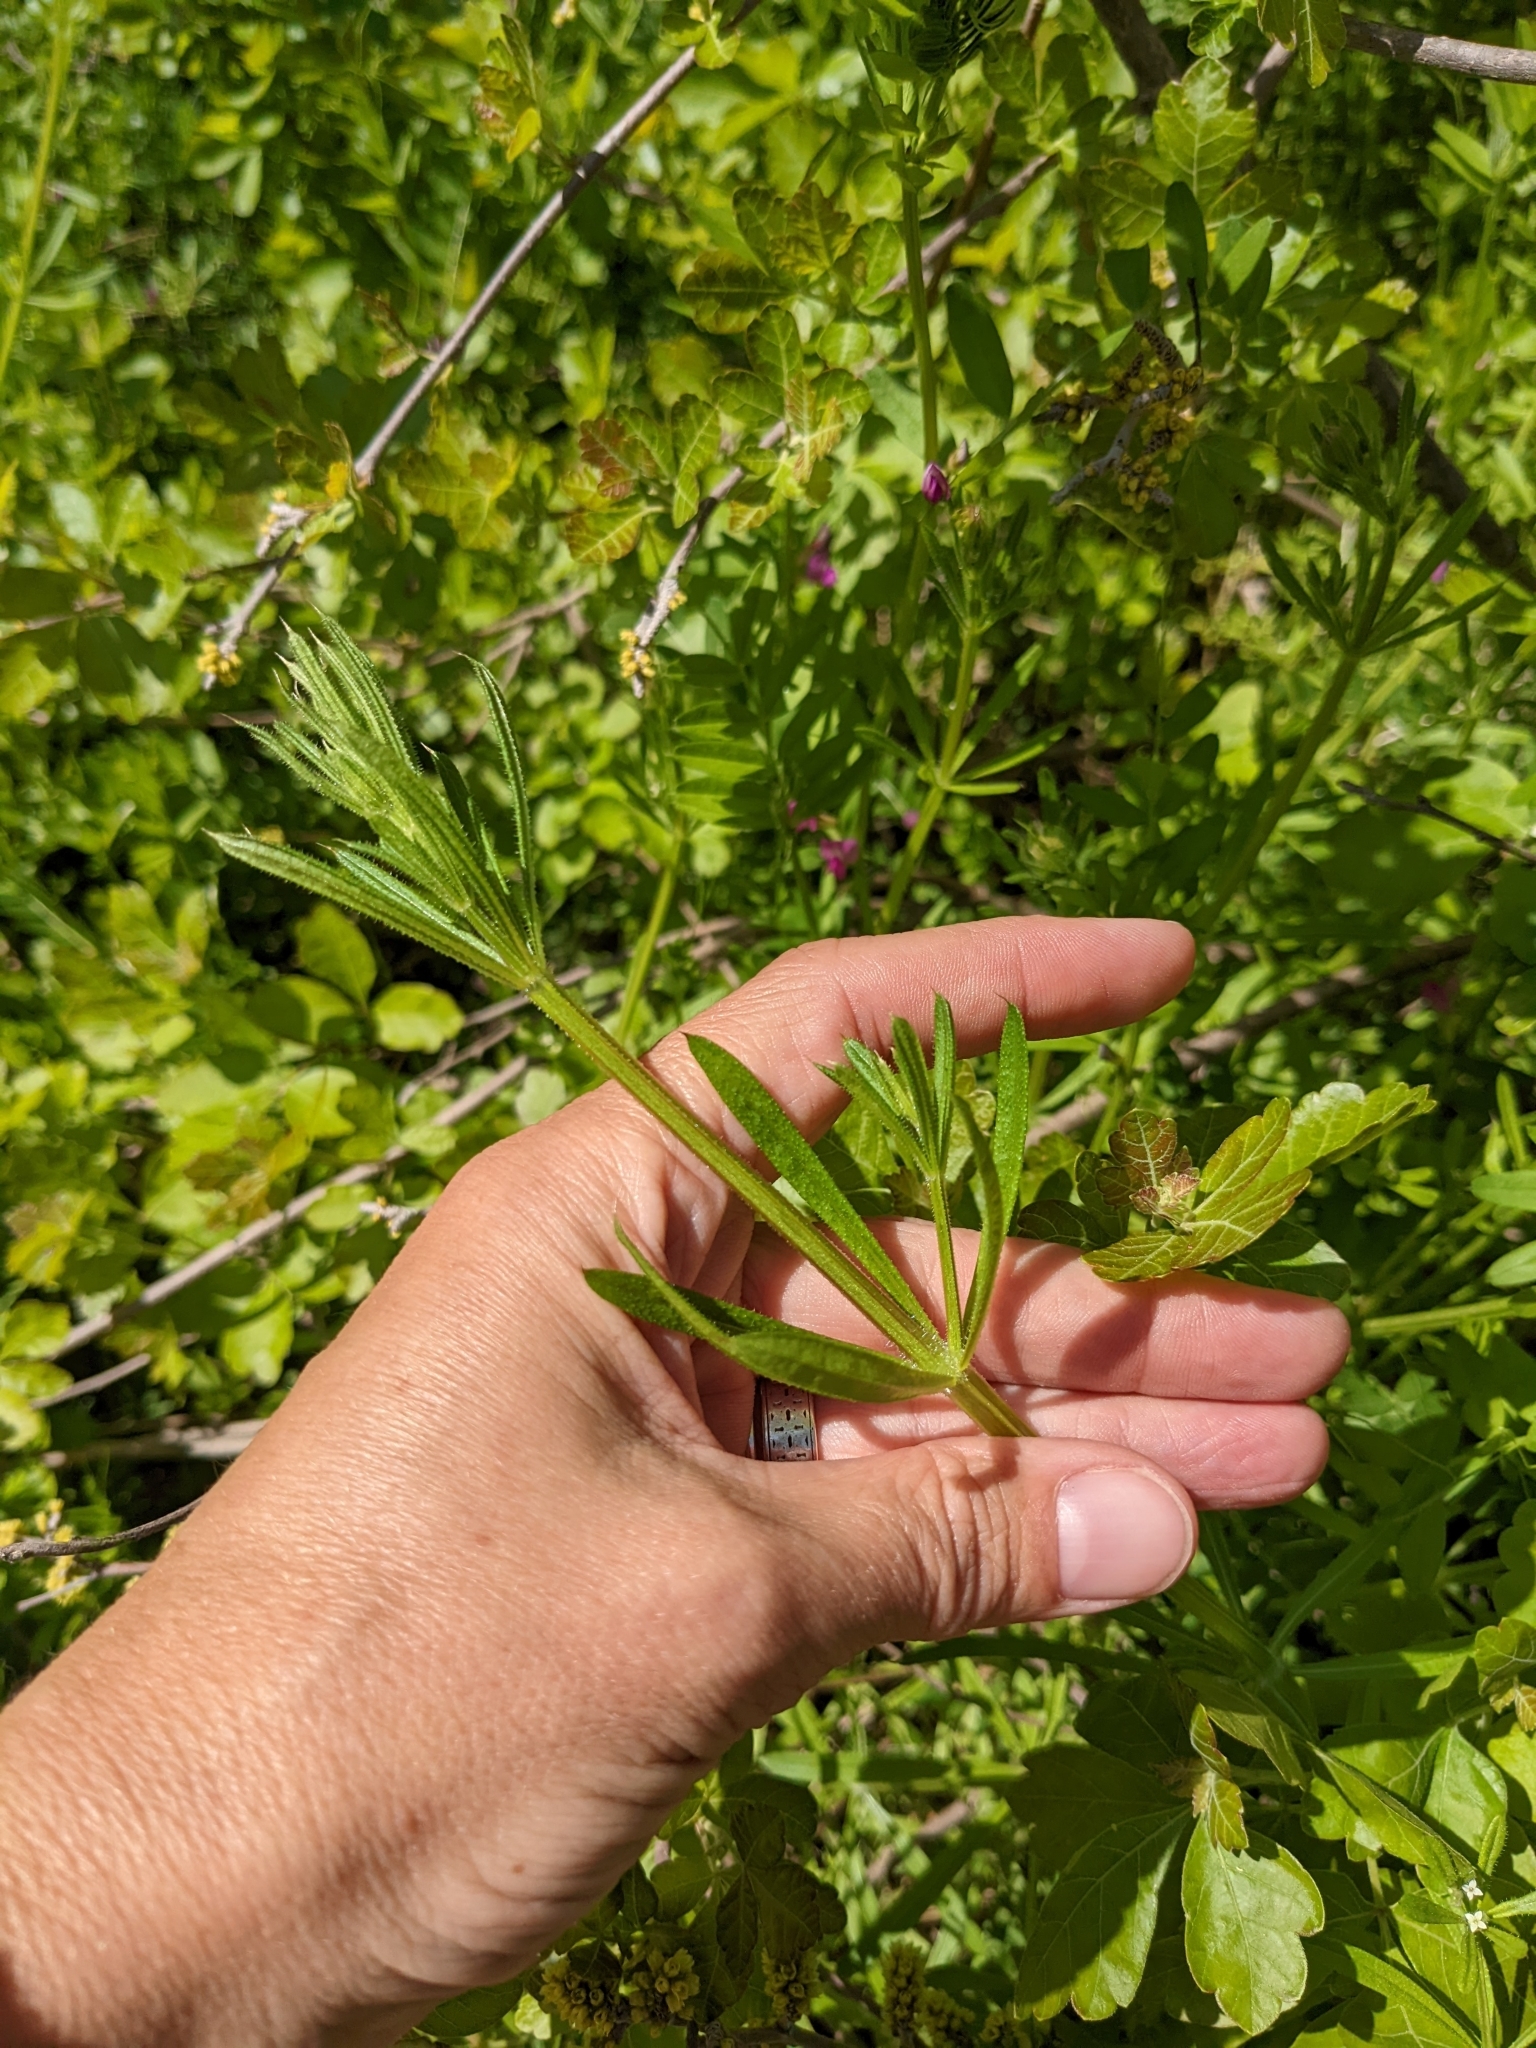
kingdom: Plantae
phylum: Tracheophyta
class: Magnoliopsida
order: Gentianales
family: Rubiaceae
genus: Galium
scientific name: Galium aparine
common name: Cleavers
